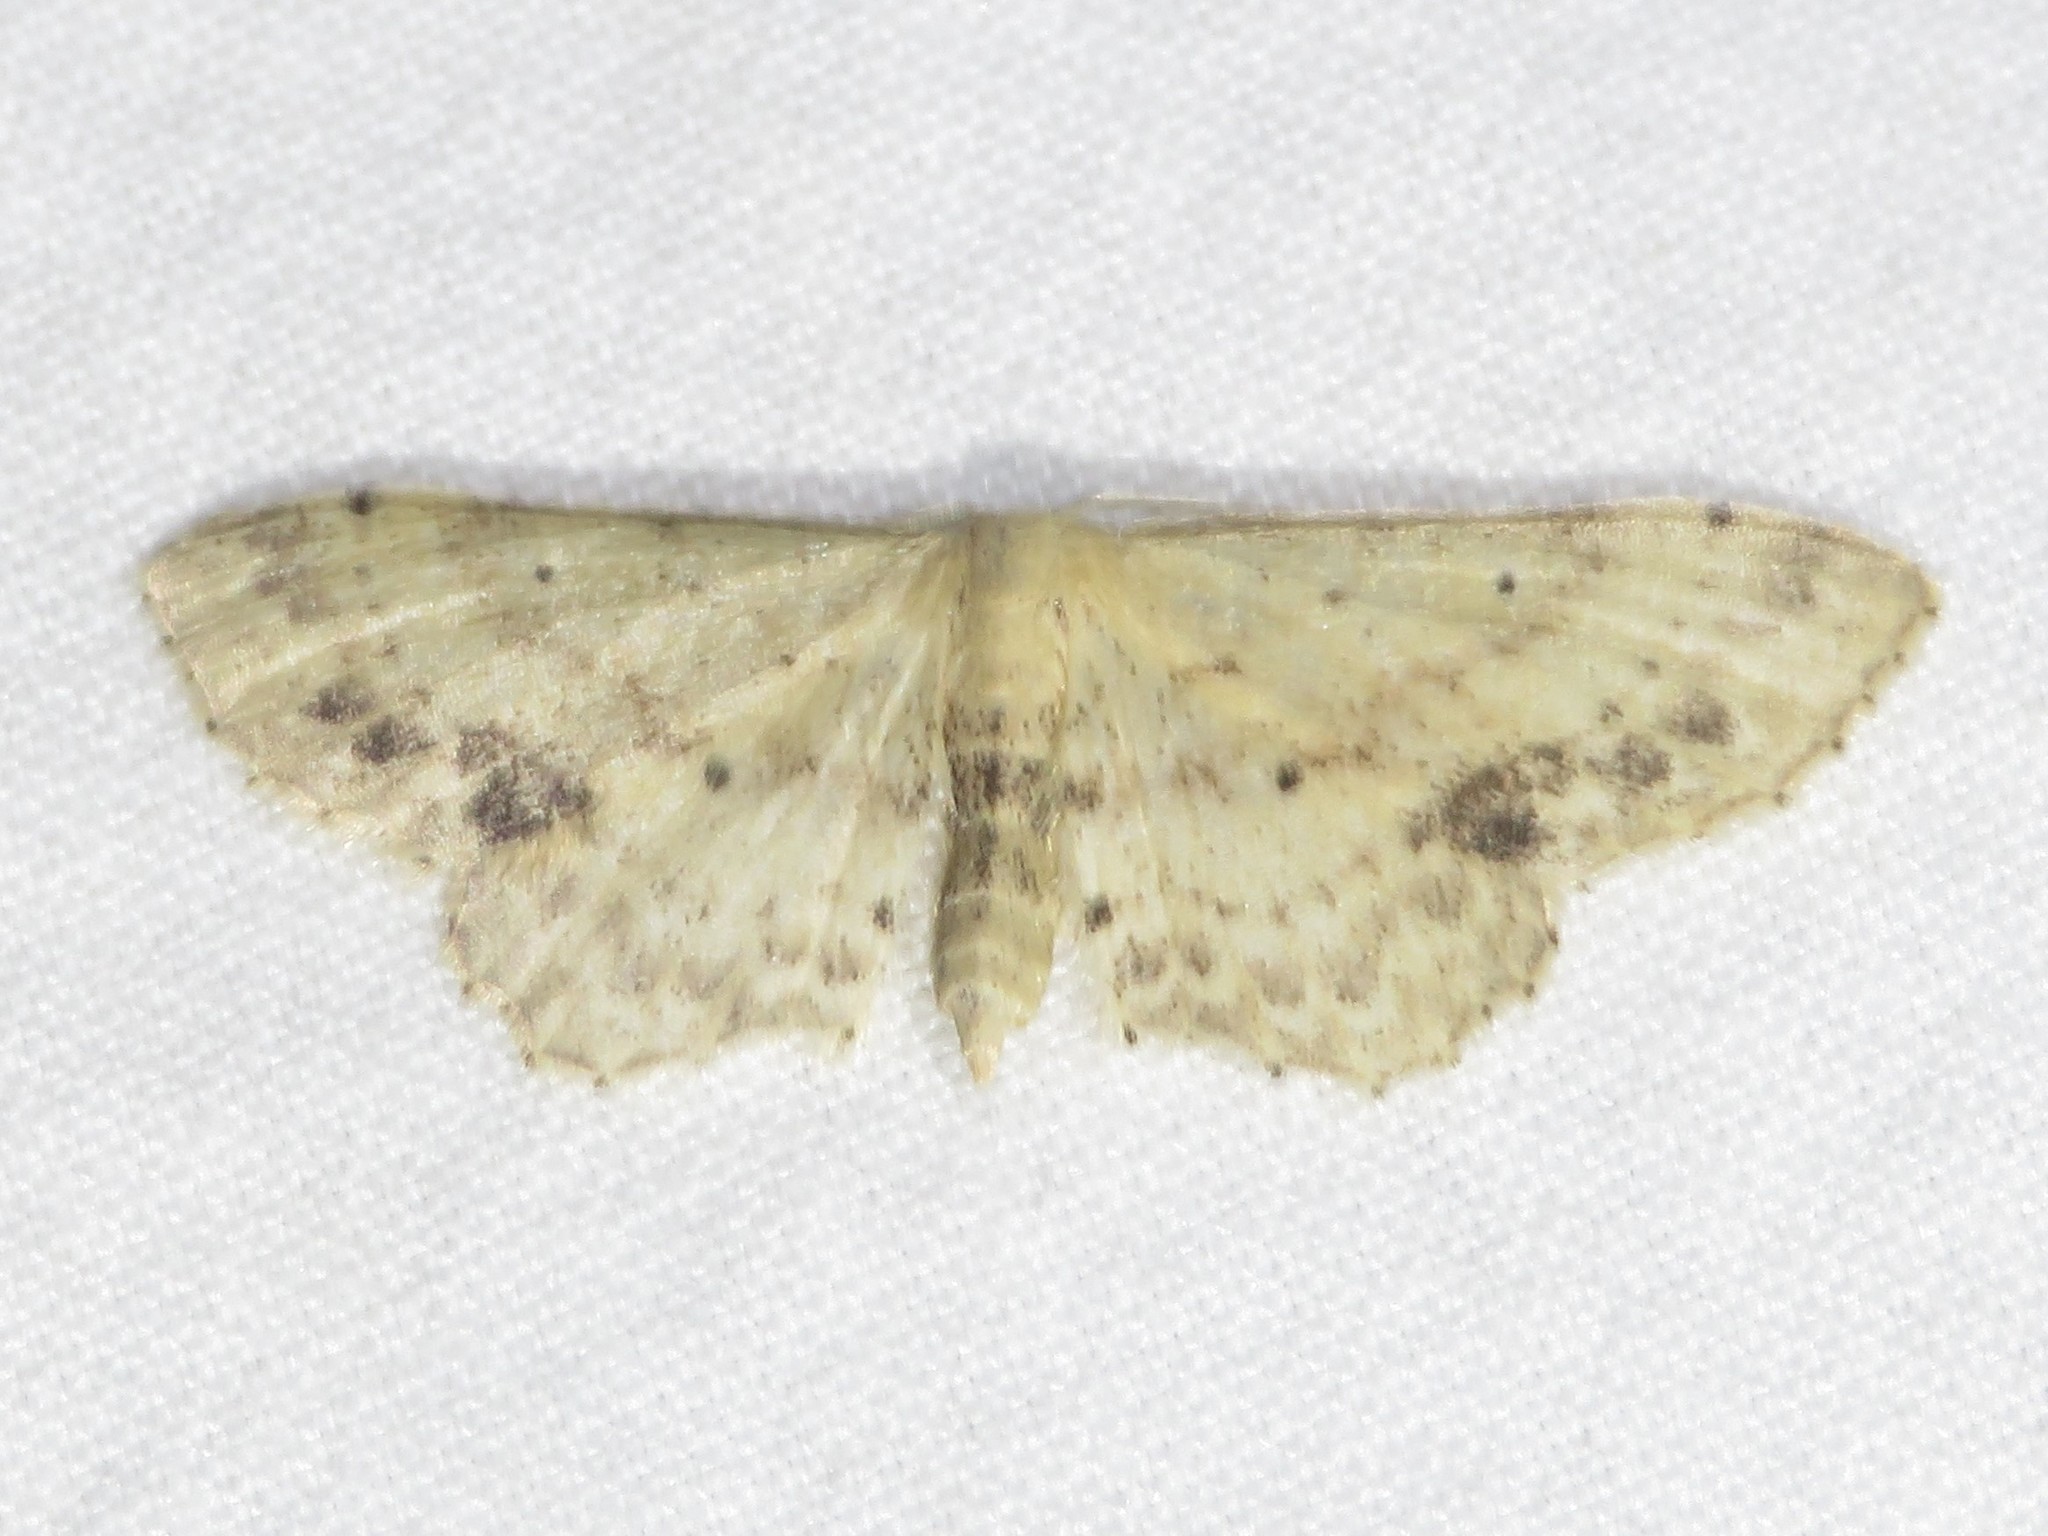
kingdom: Animalia
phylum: Arthropoda
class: Insecta
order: Lepidoptera
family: Geometridae
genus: Idaea
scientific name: Idaea dimidiata
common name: Single-dotted wave
